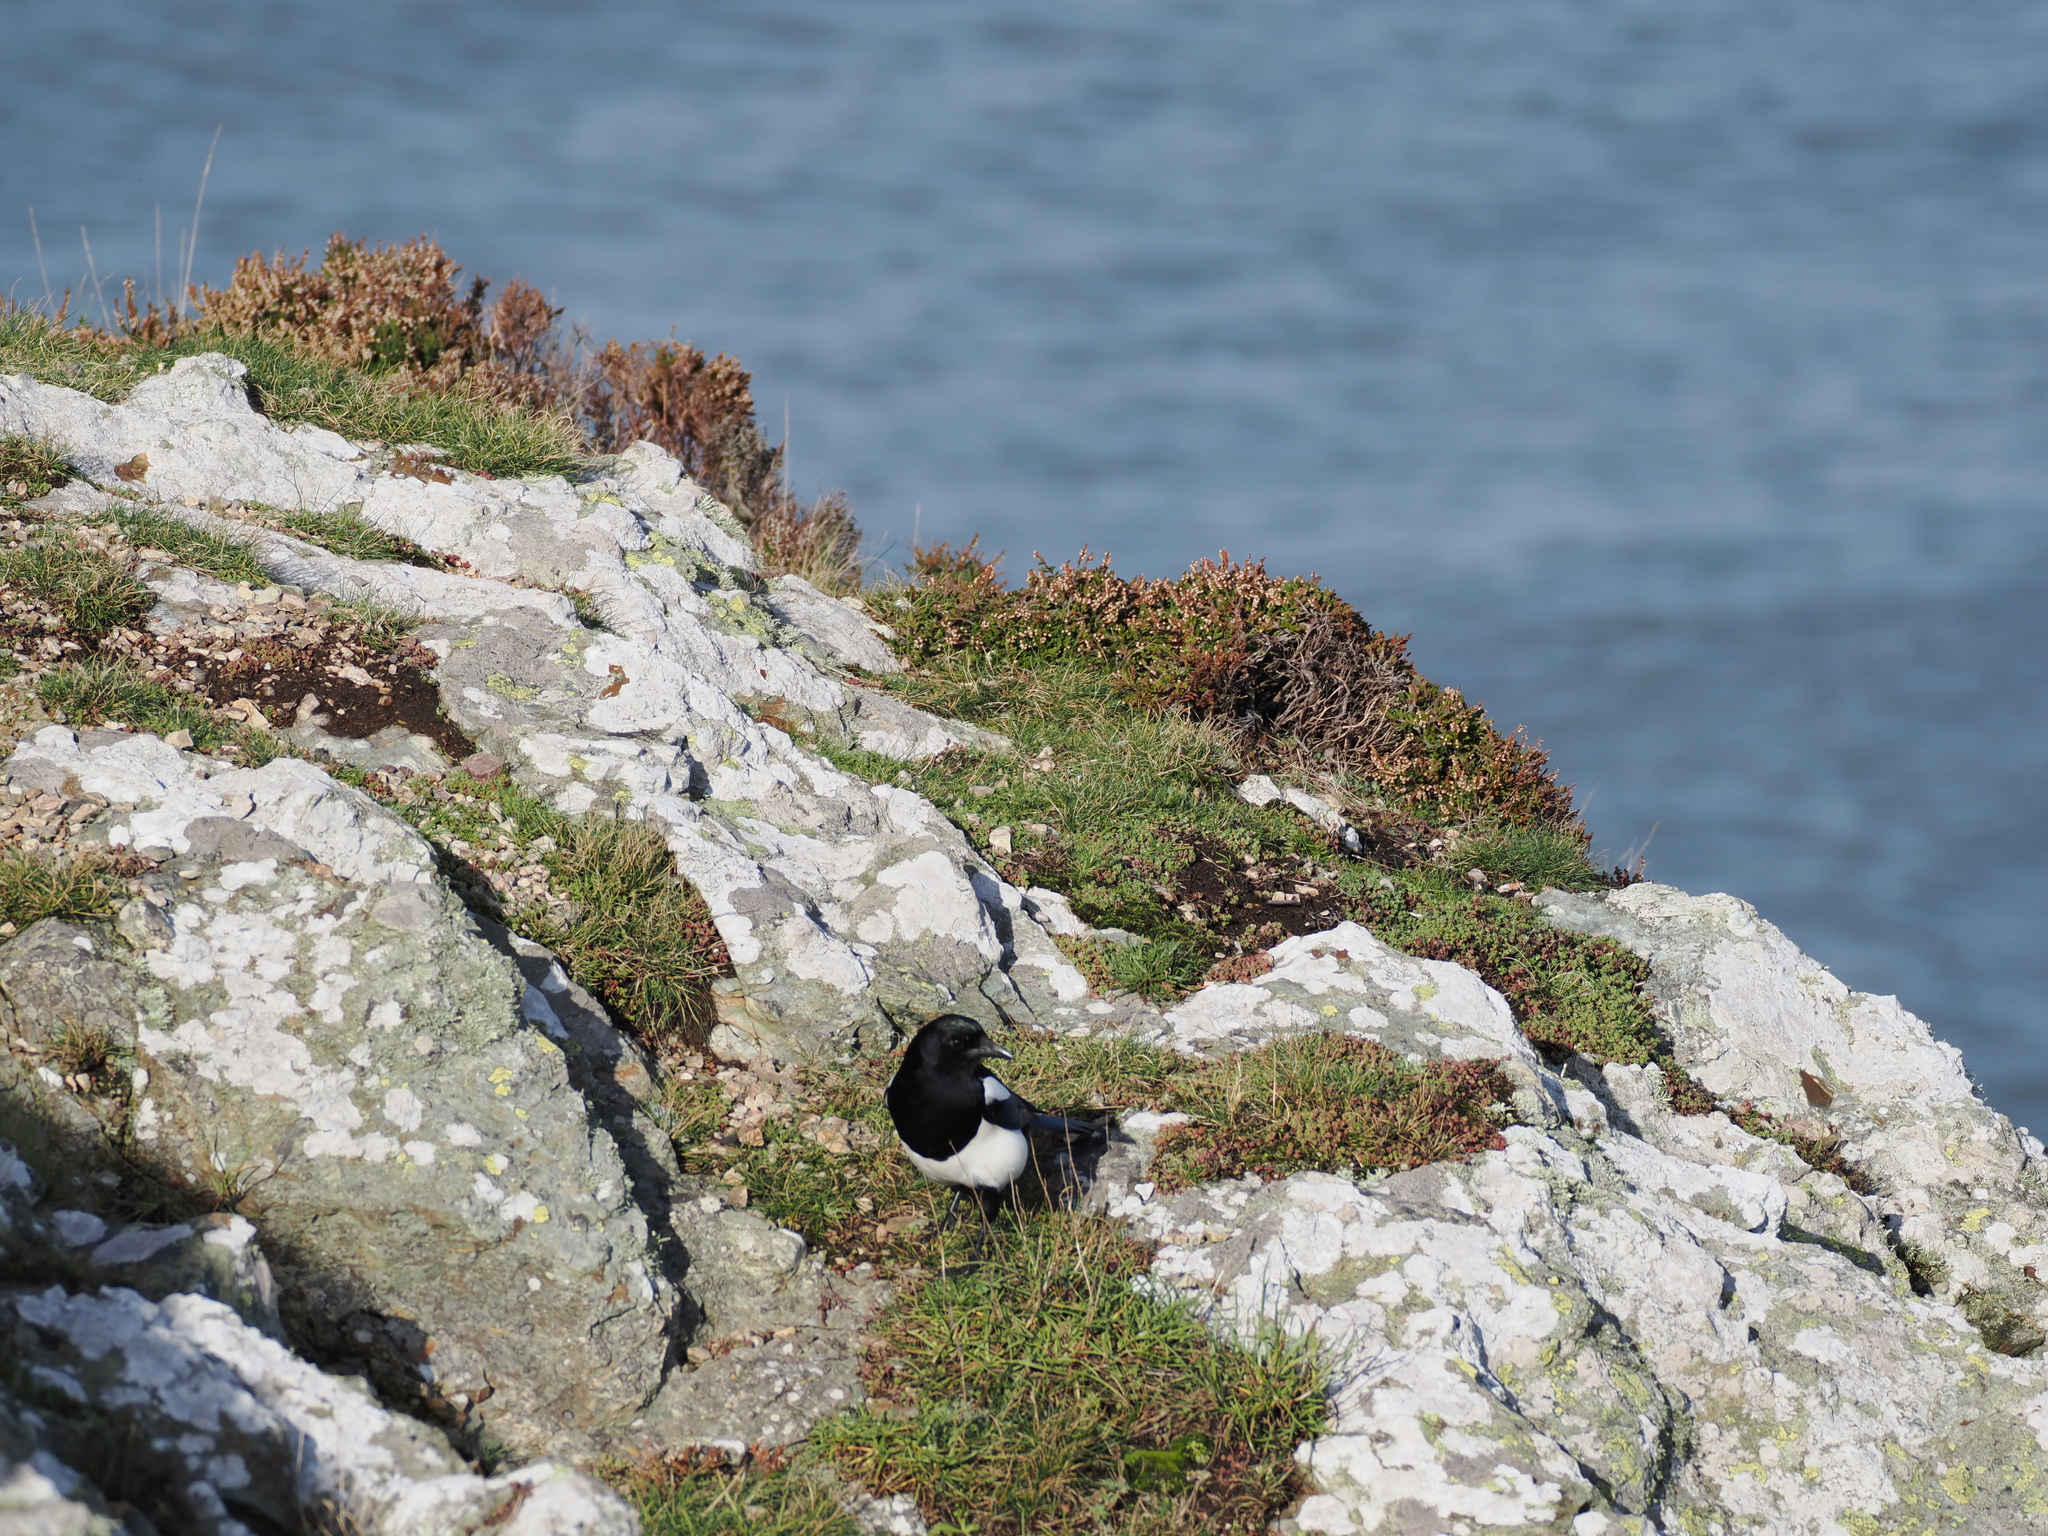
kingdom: Animalia
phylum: Chordata
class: Aves
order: Passeriformes
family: Corvidae
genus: Pica
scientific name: Pica pica
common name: Eurasian magpie
